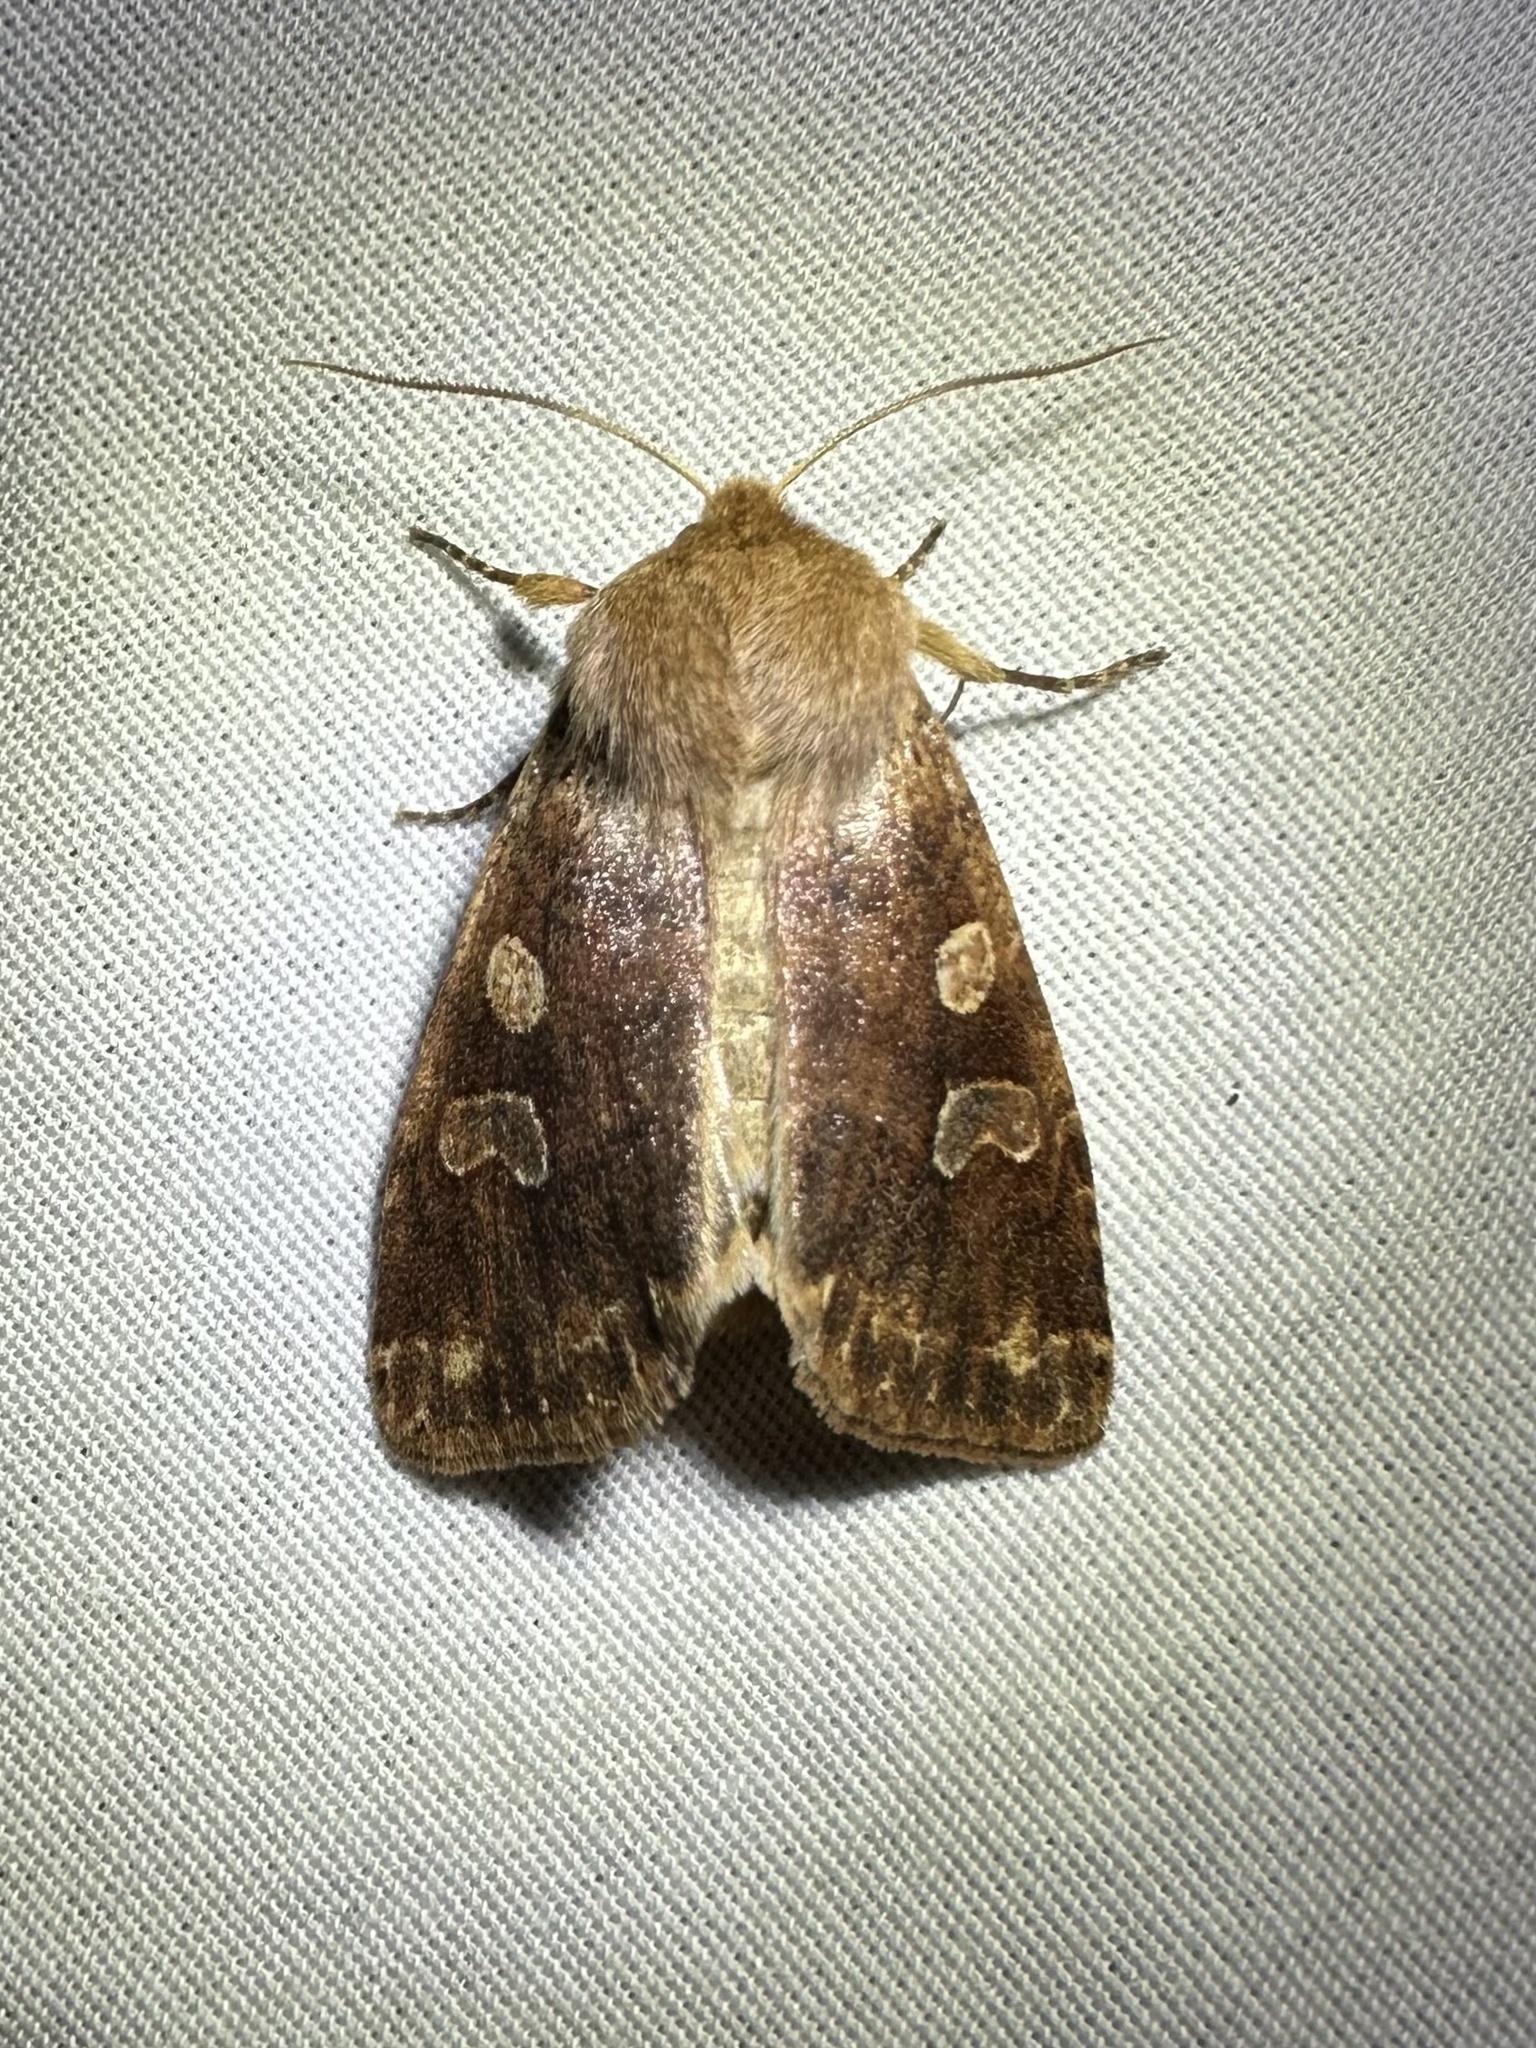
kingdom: Animalia
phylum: Arthropoda
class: Insecta
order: Lepidoptera
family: Noctuidae
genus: Orthosia
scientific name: Orthosia rubescens
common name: Ruby quaker
